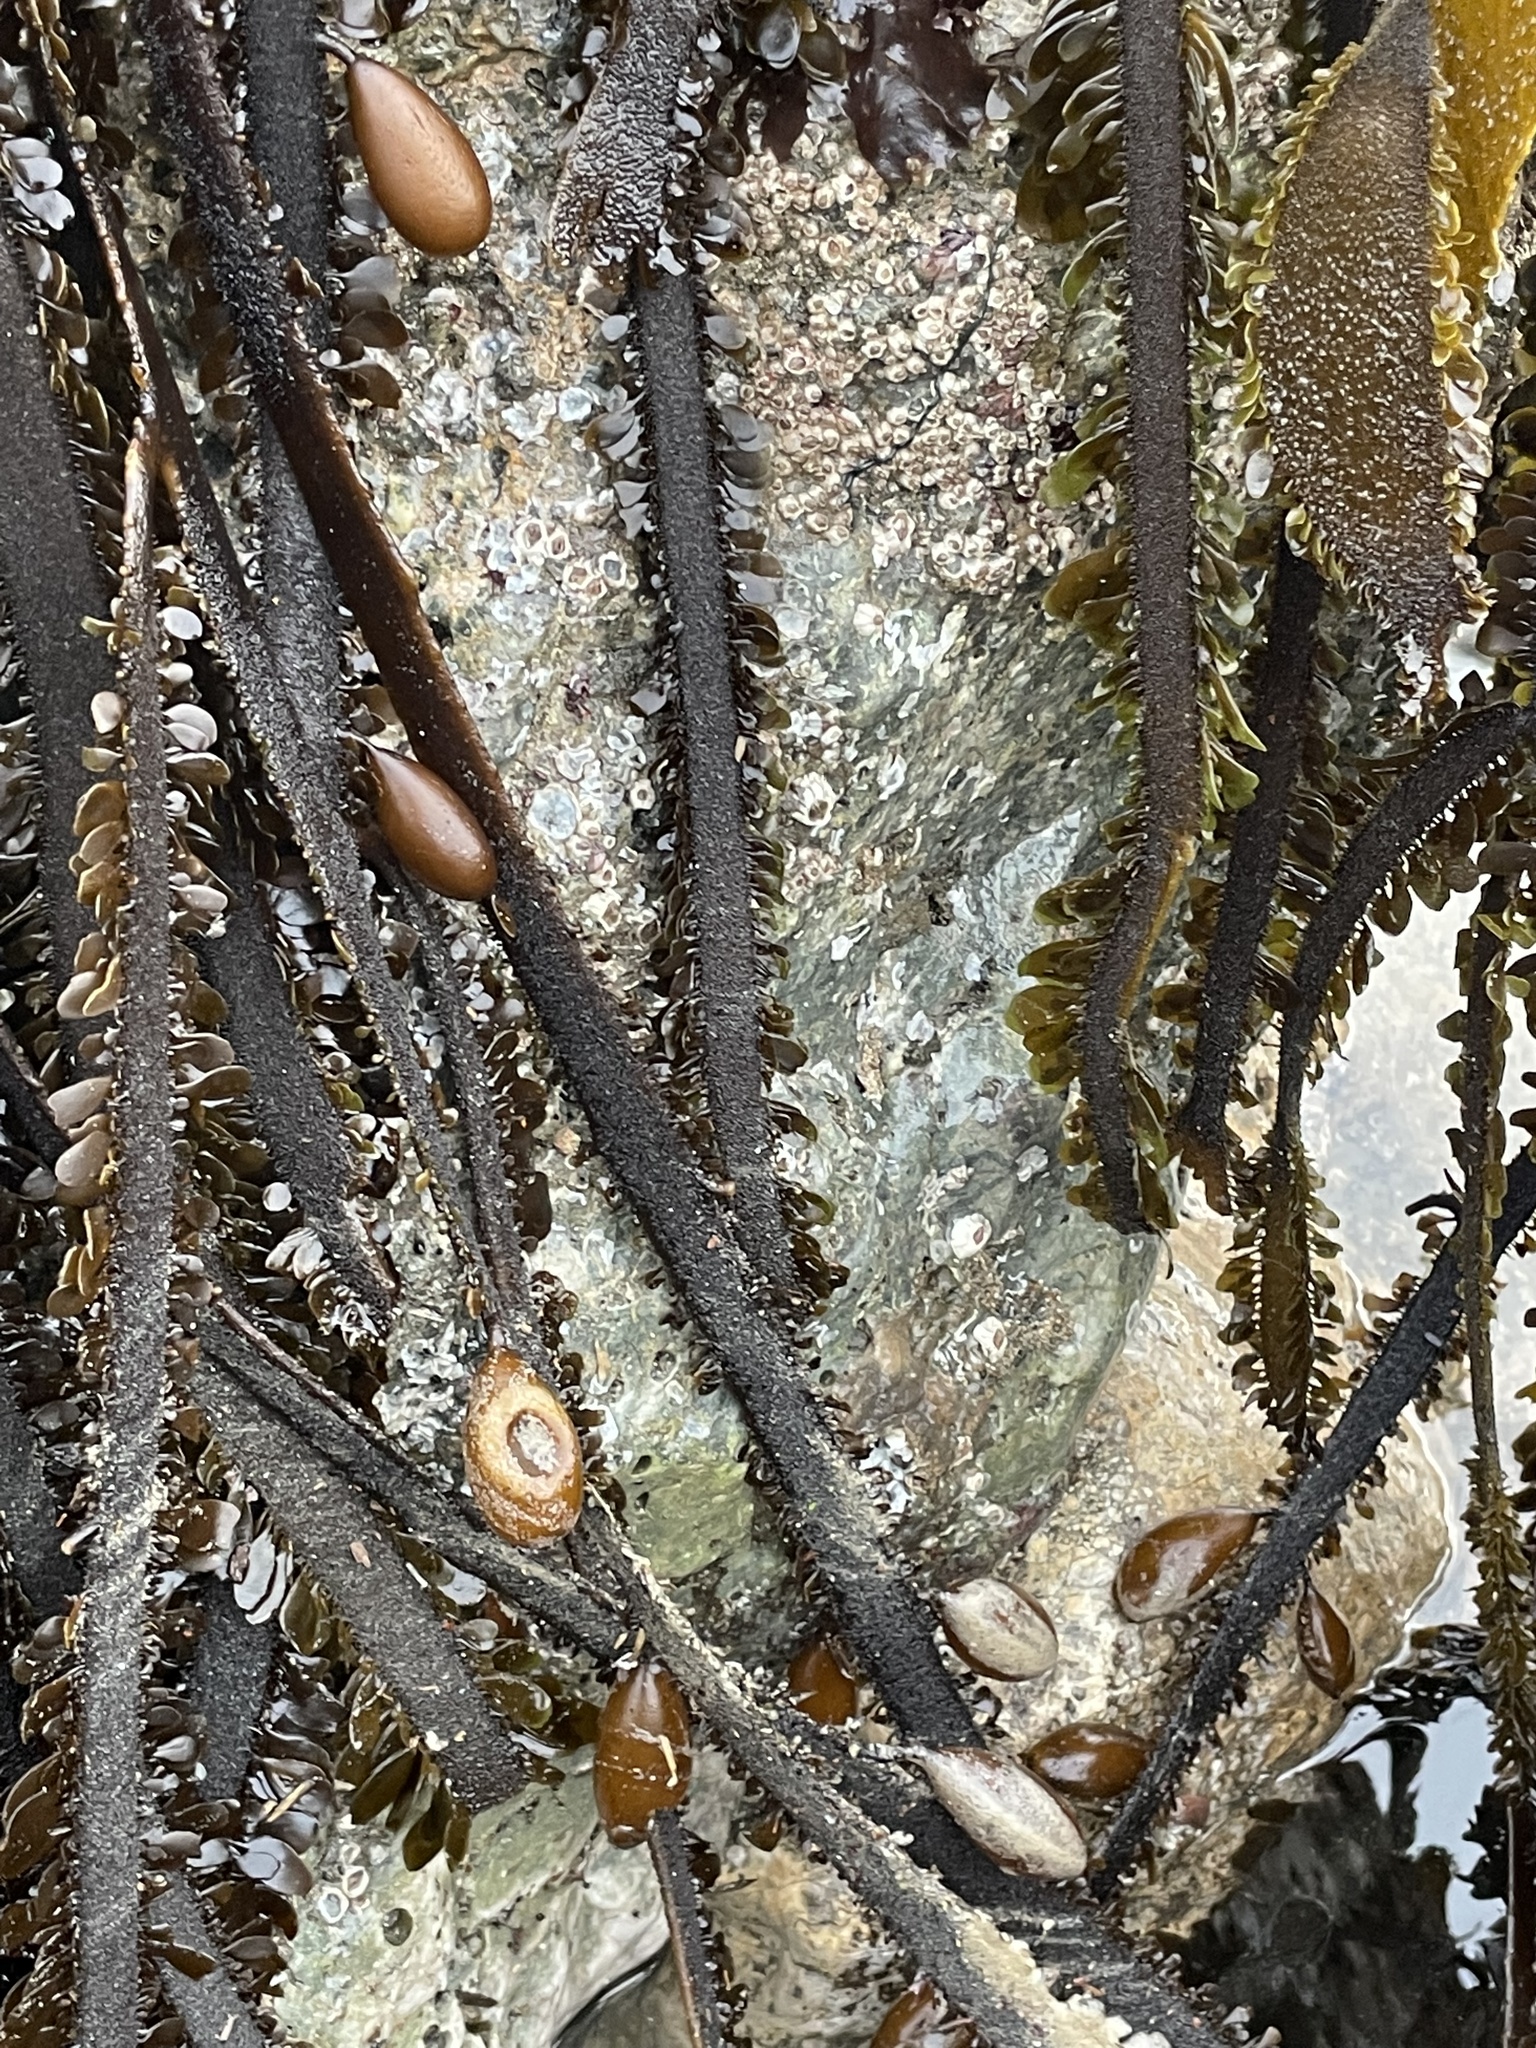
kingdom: Chromista
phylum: Ochrophyta
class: Phaeophyceae
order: Laminariales
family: Lessoniaceae
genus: Egregia
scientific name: Egregia menziesii
